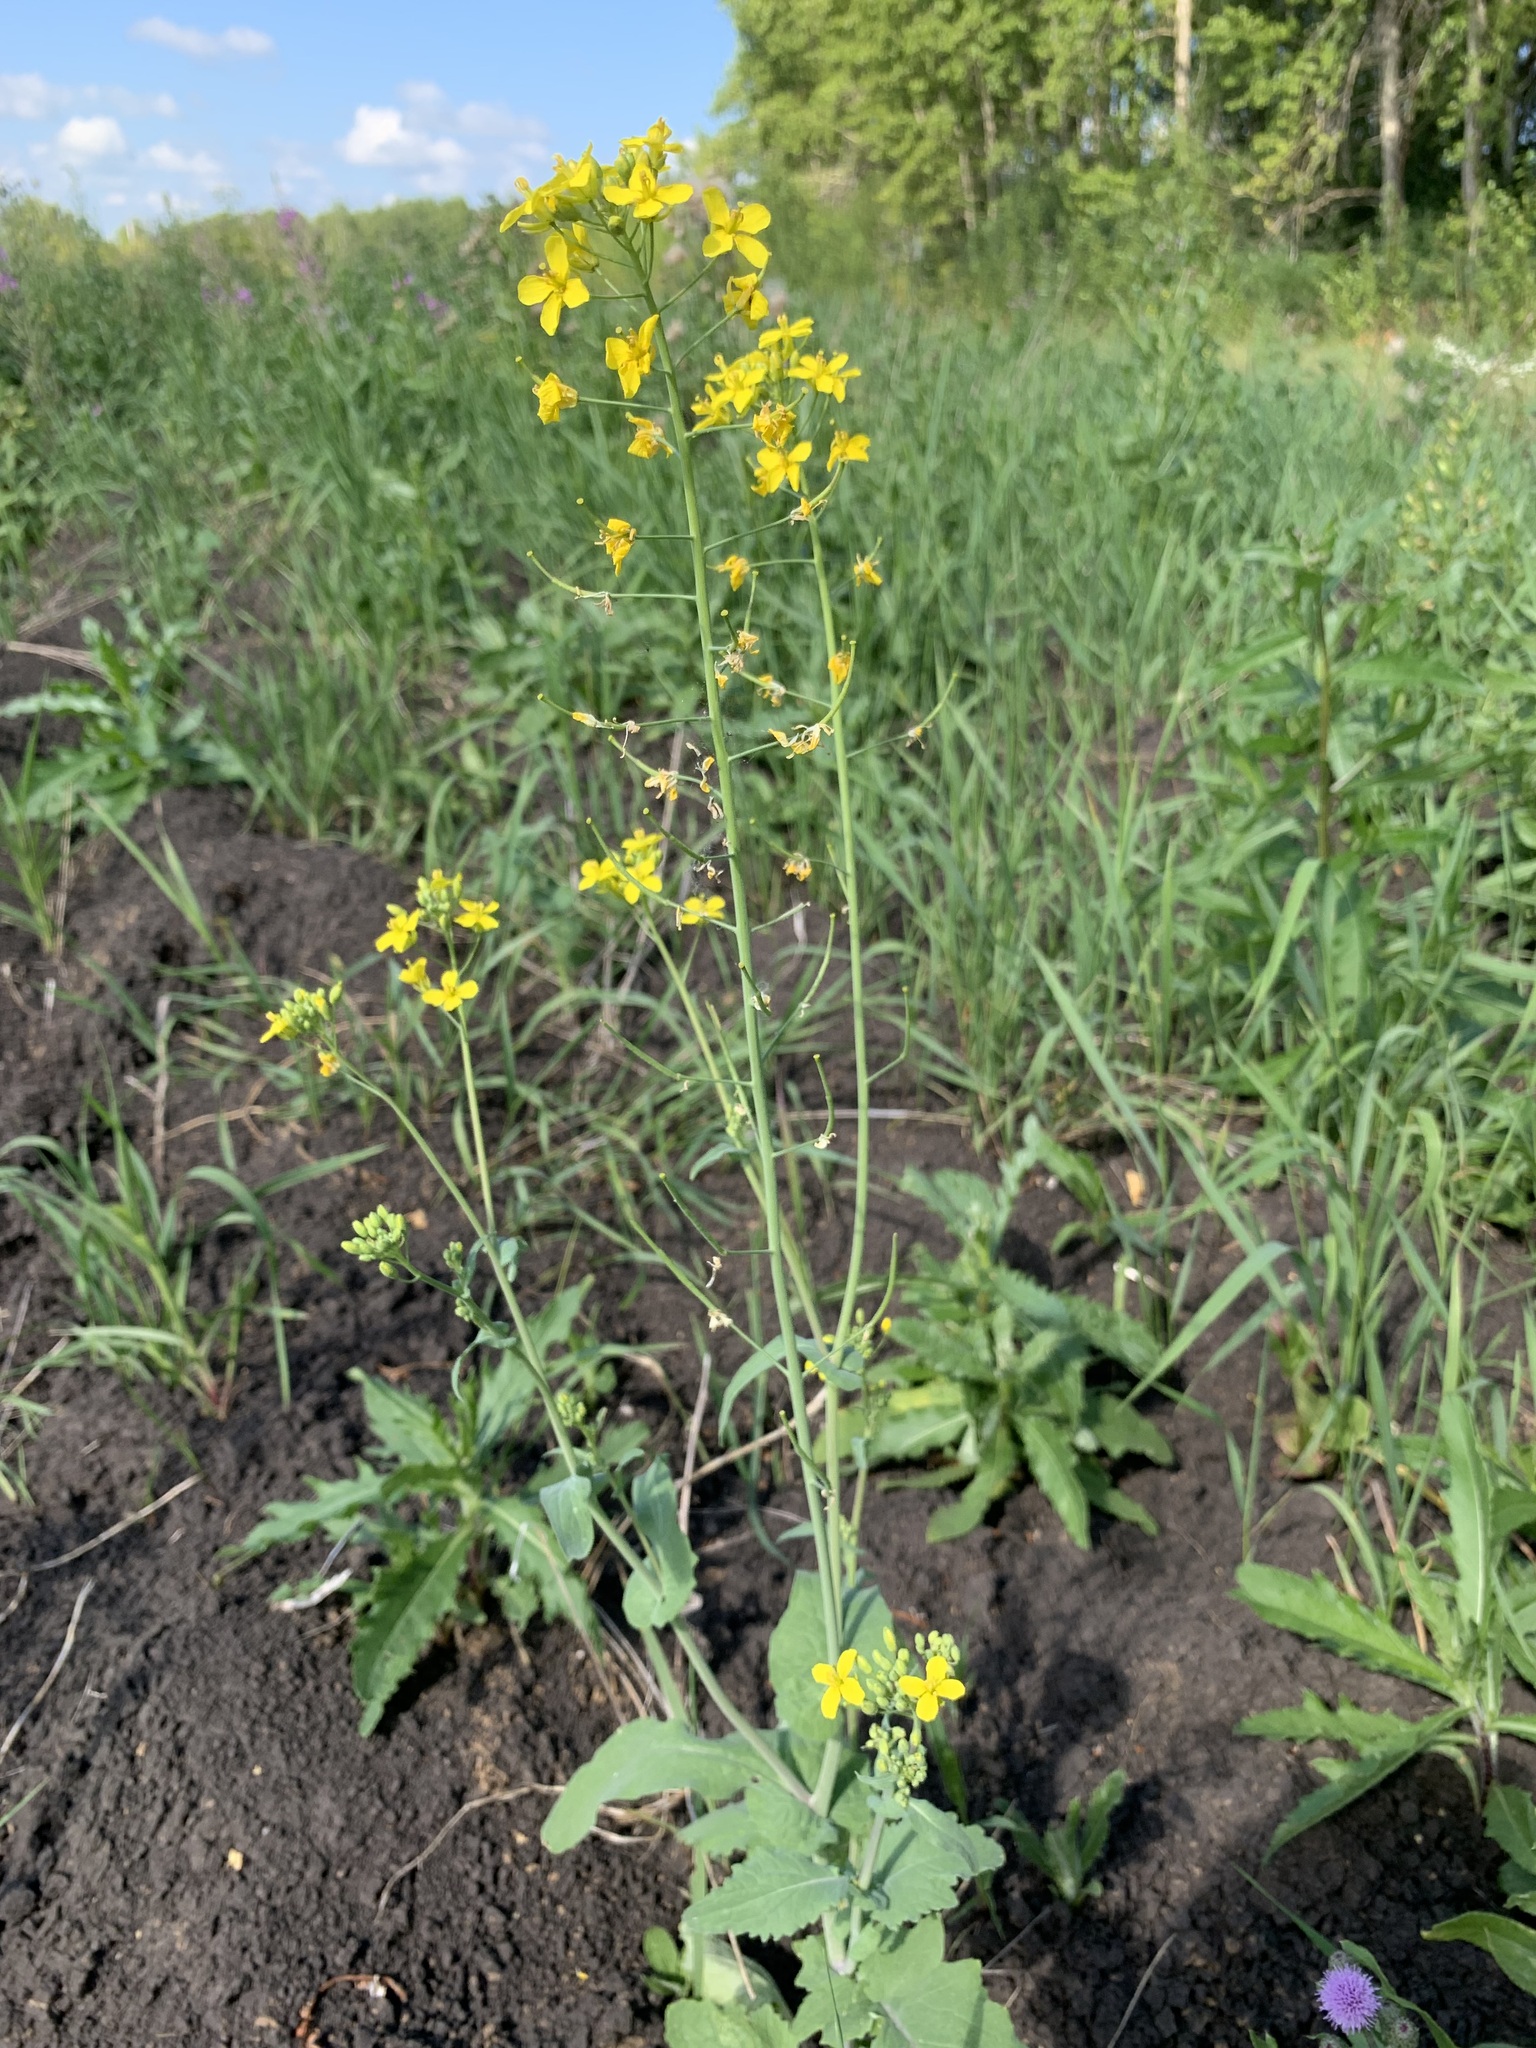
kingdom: Plantae
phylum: Tracheophyta
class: Magnoliopsida
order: Brassicales
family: Brassicaceae
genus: Brassica
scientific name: Brassica rapa
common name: Field mustard
